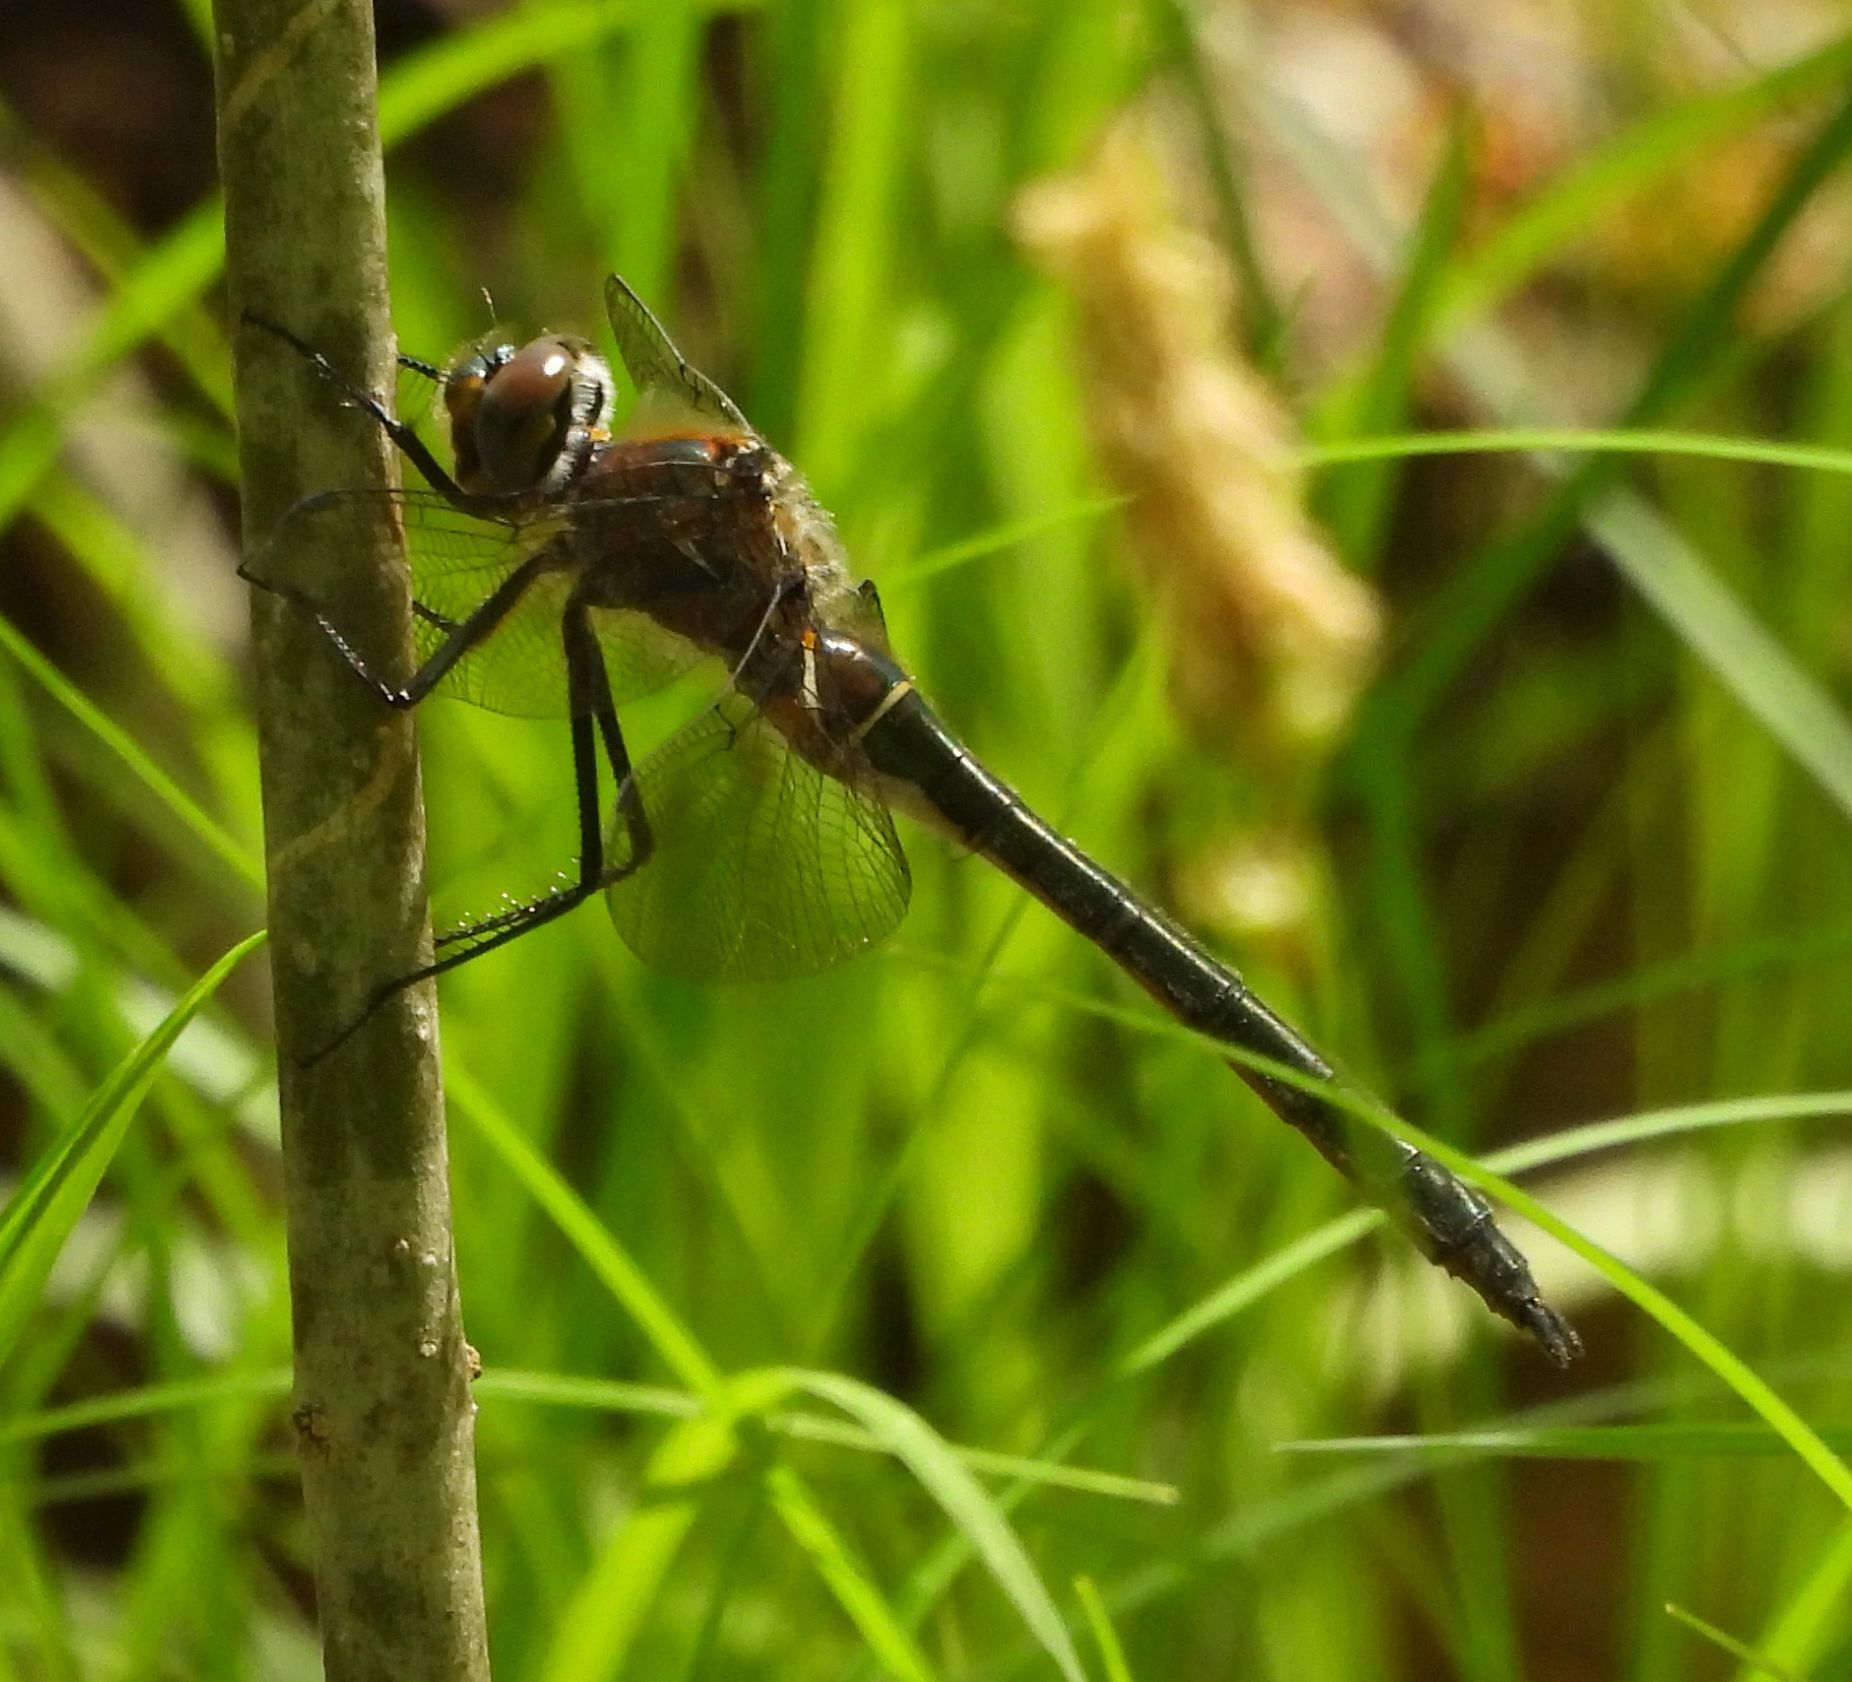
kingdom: Animalia
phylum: Arthropoda
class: Insecta
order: Odonata
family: Corduliidae
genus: Cordulia
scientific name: Cordulia shurtleffii
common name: American emerald
